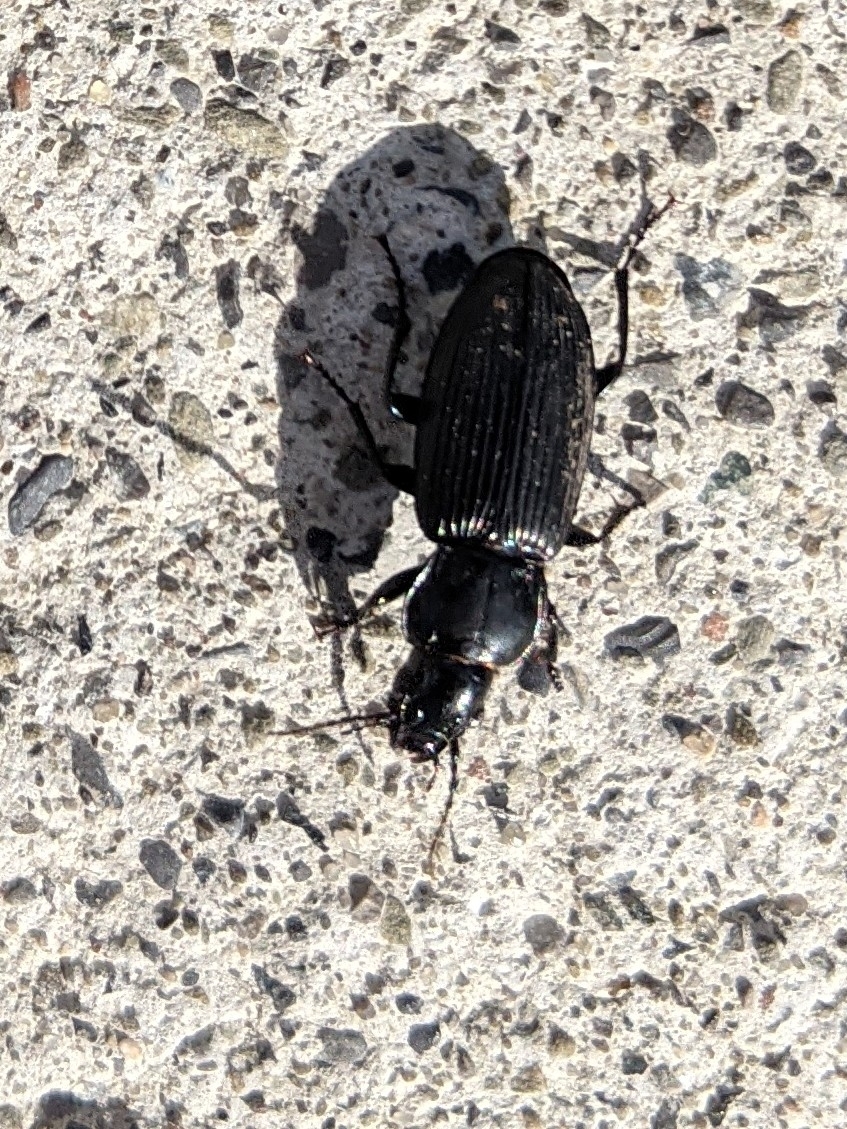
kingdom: Animalia
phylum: Arthropoda
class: Insecta
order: Coleoptera
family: Carabidae
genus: Pterostichus
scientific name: Pterostichus melanarius
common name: European dark harp ground beetle
